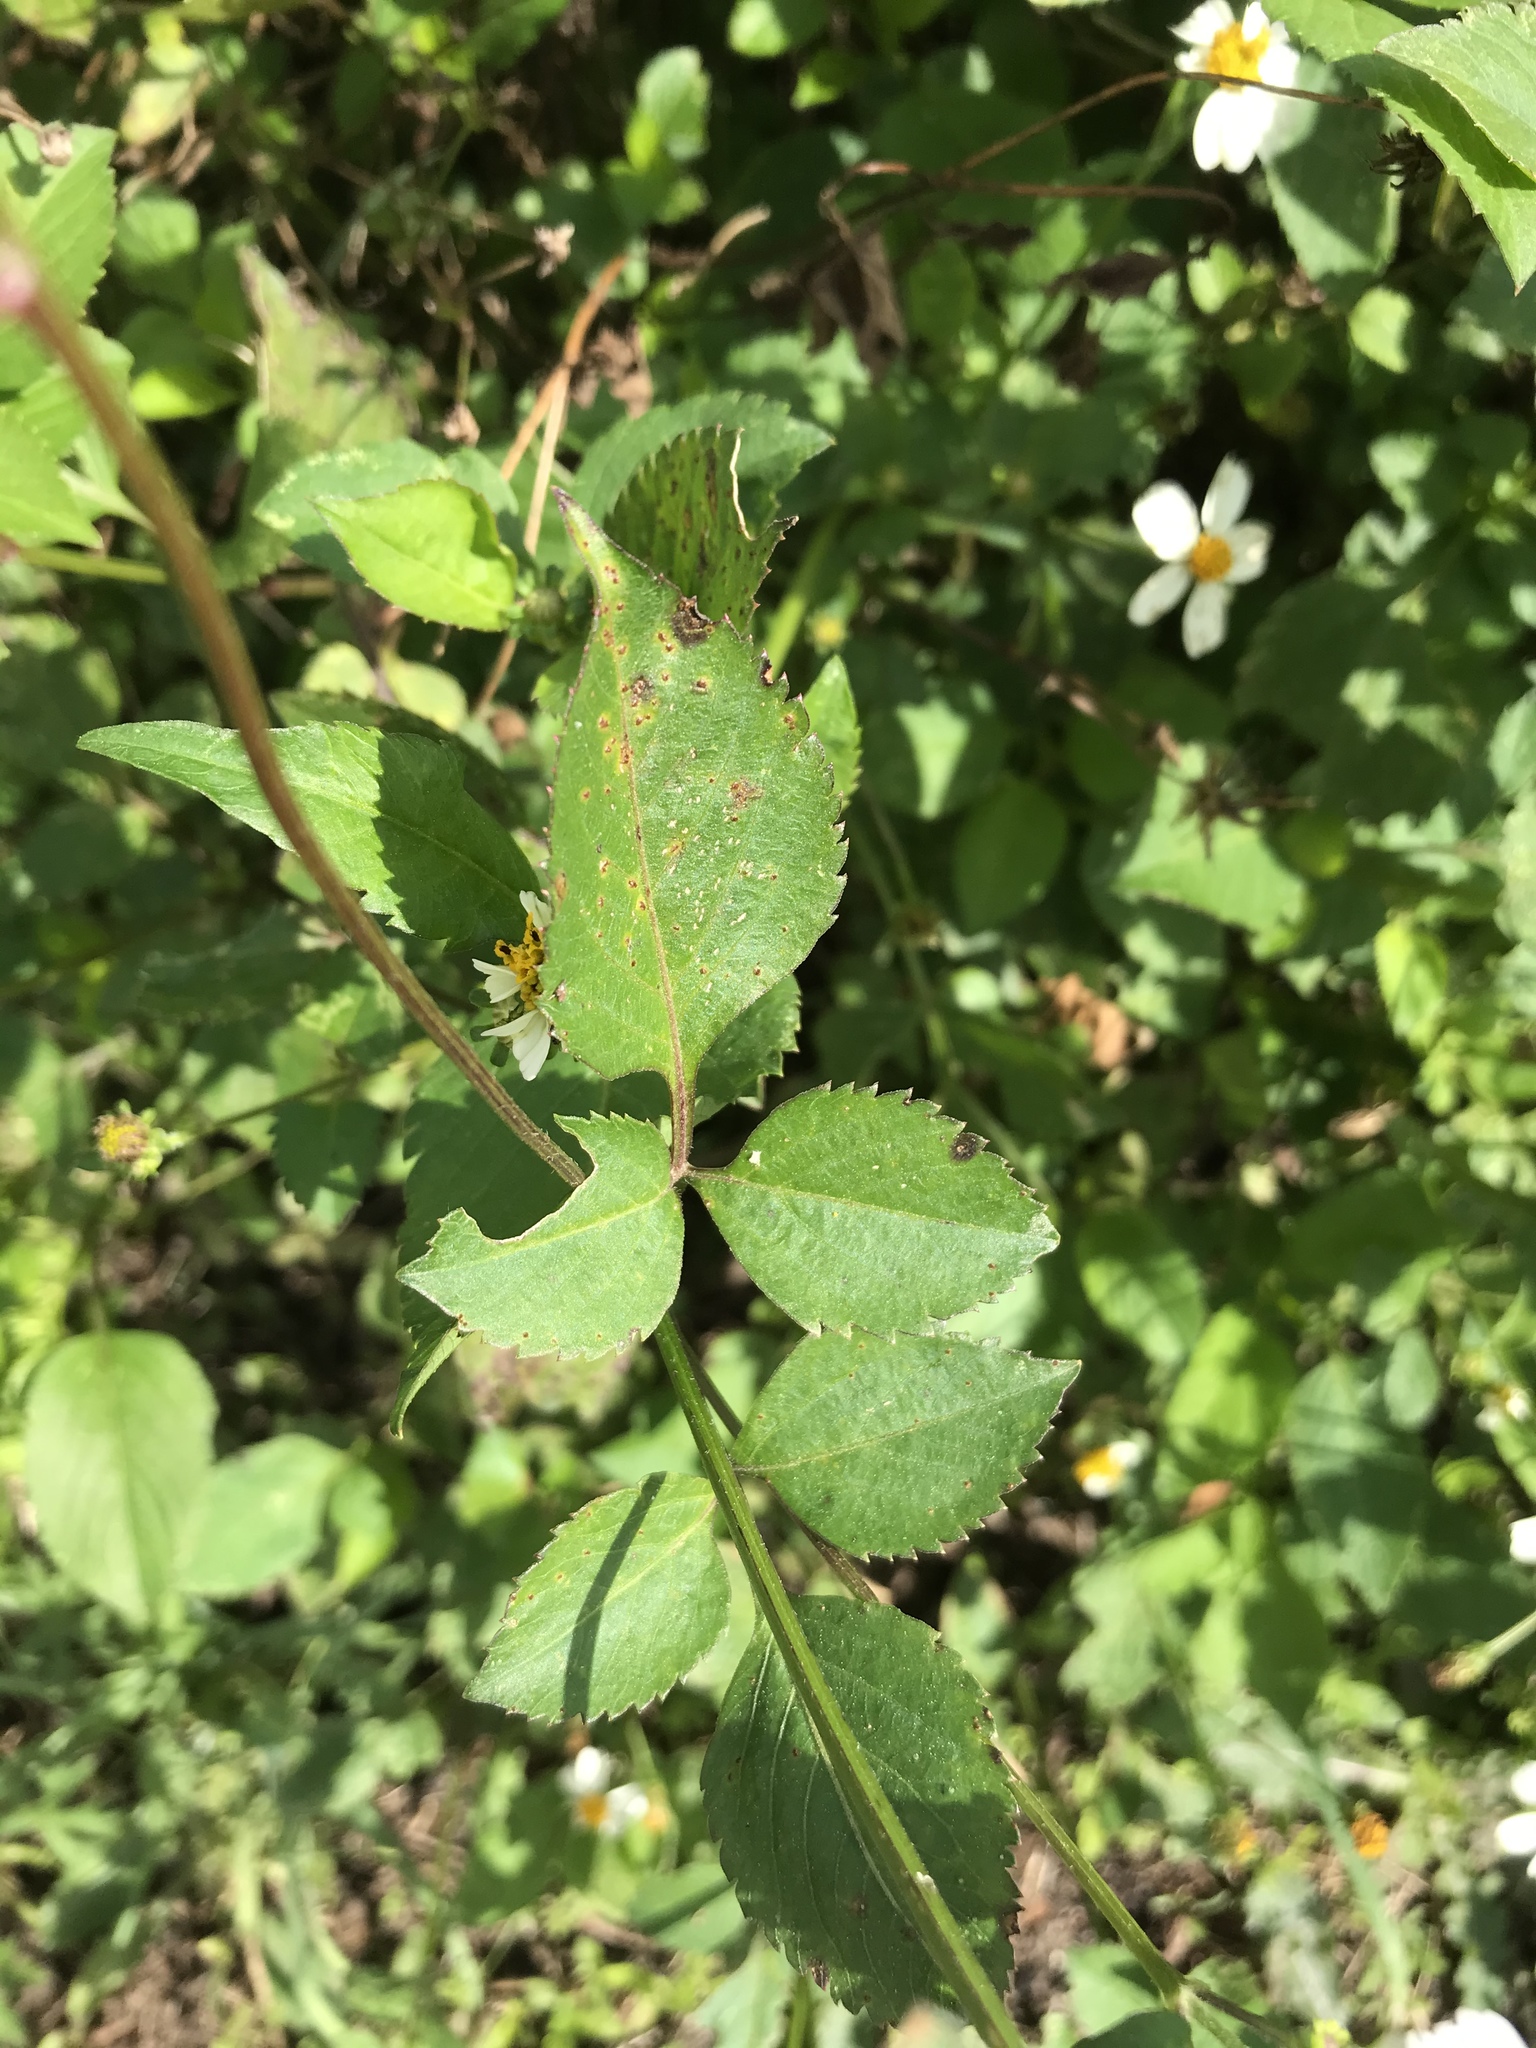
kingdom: Plantae
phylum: Tracheophyta
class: Magnoliopsida
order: Asterales
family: Asteraceae
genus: Bidens
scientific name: Bidens alba
